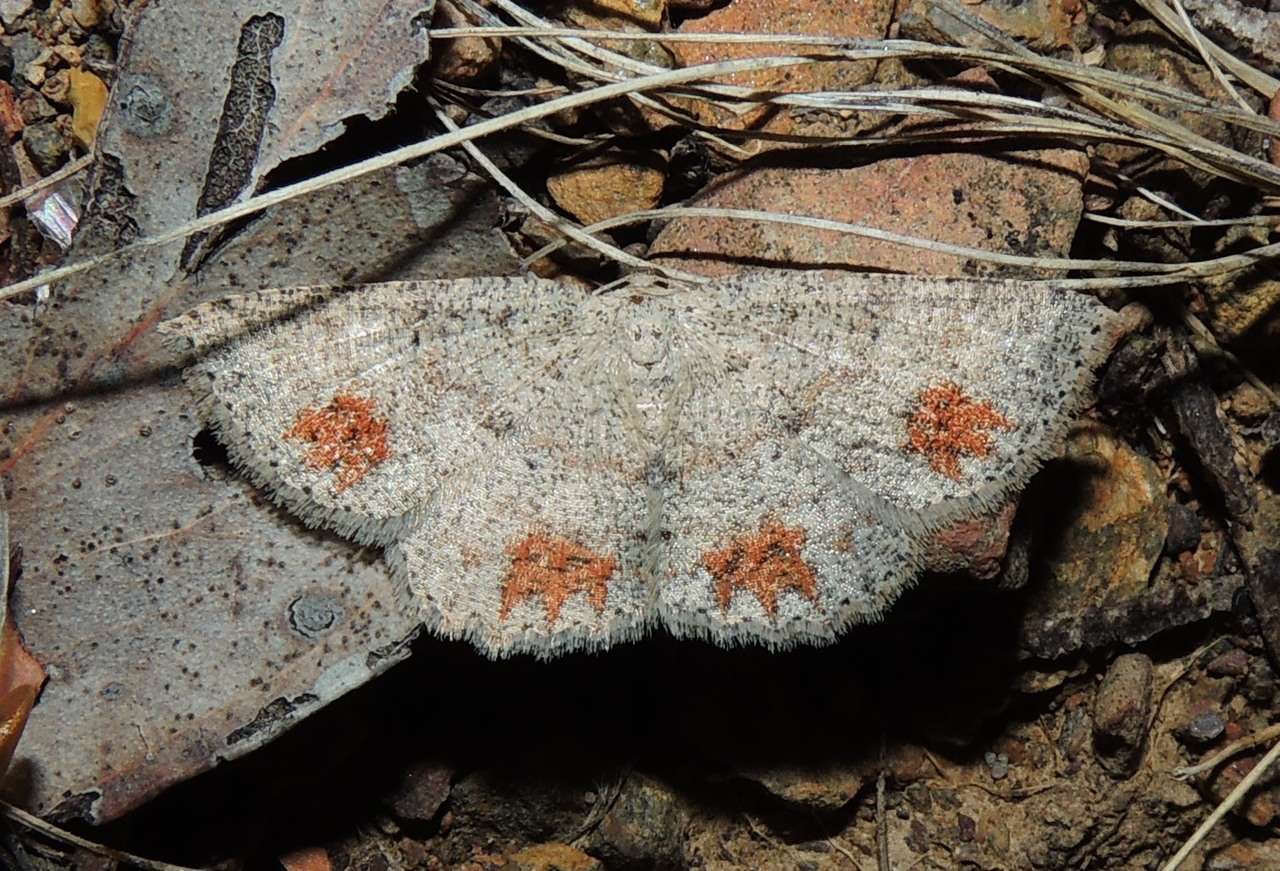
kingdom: Animalia
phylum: Arthropoda
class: Insecta
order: Lepidoptera
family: Geometridae
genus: Casbia
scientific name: Casbia celidosema
